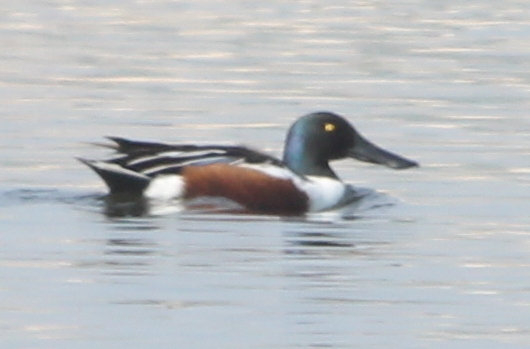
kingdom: Animalia
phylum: Chordata
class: Aves
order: Anseriformes
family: Anatidae
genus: Spatula
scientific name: Spatula clypeata
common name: Northern shoveler
